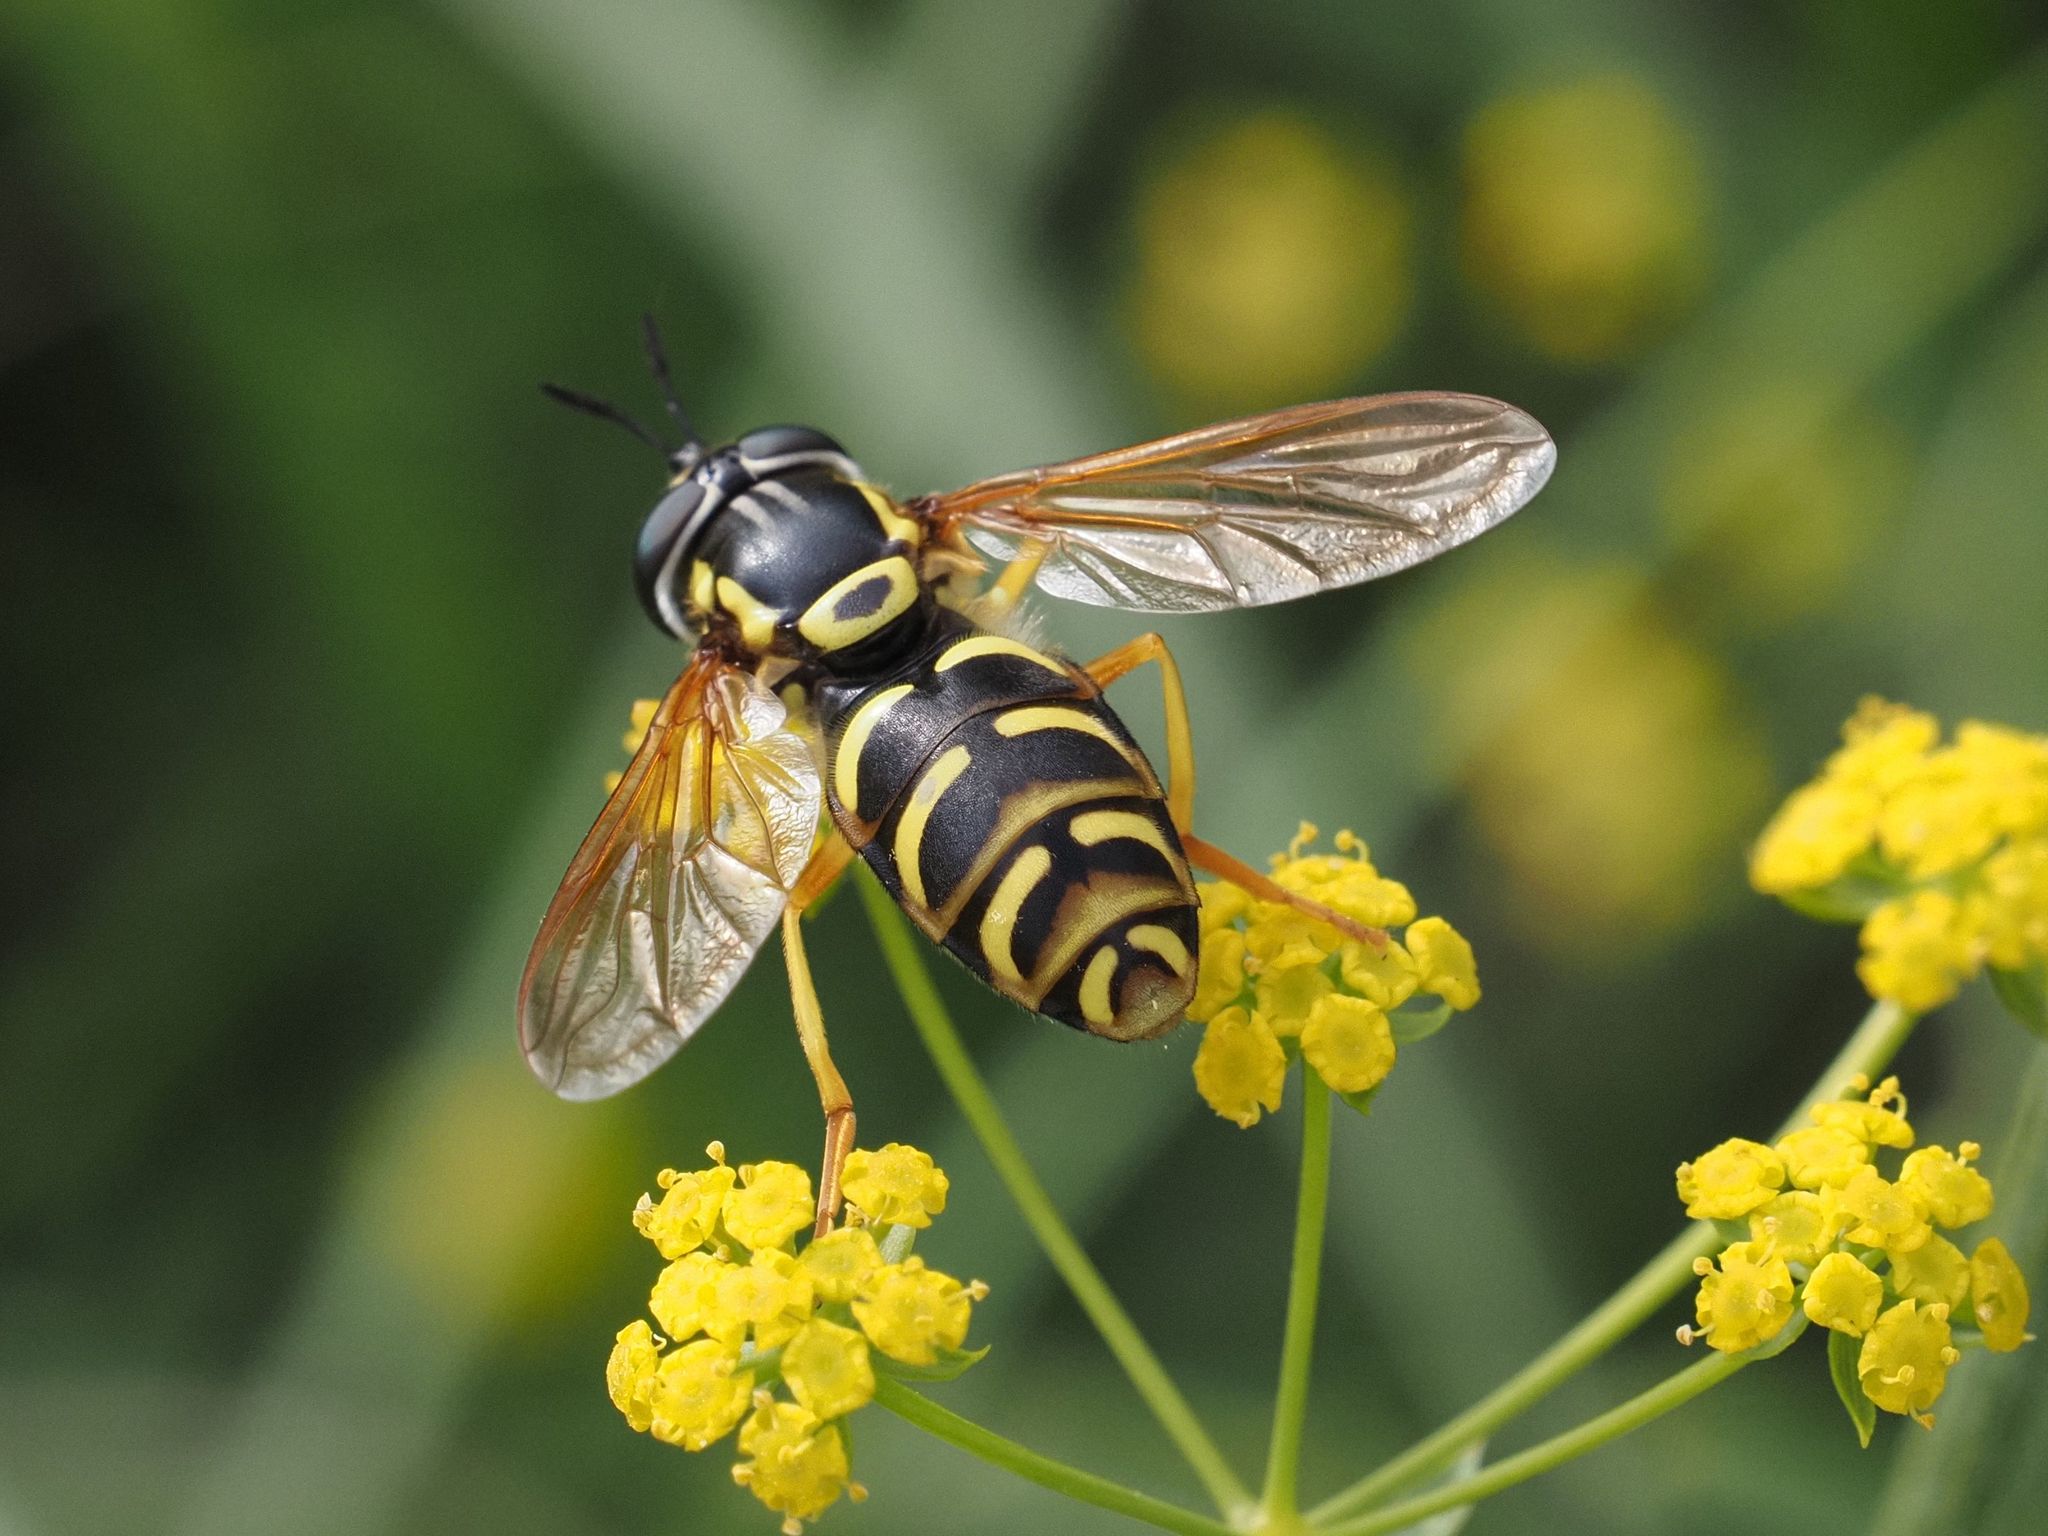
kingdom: Animalia
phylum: Arthropoda
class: Insecta
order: Diptera
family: Syrphidae
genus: Chrysotoxum
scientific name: Chrysotoxum elegans
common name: Zipperback
